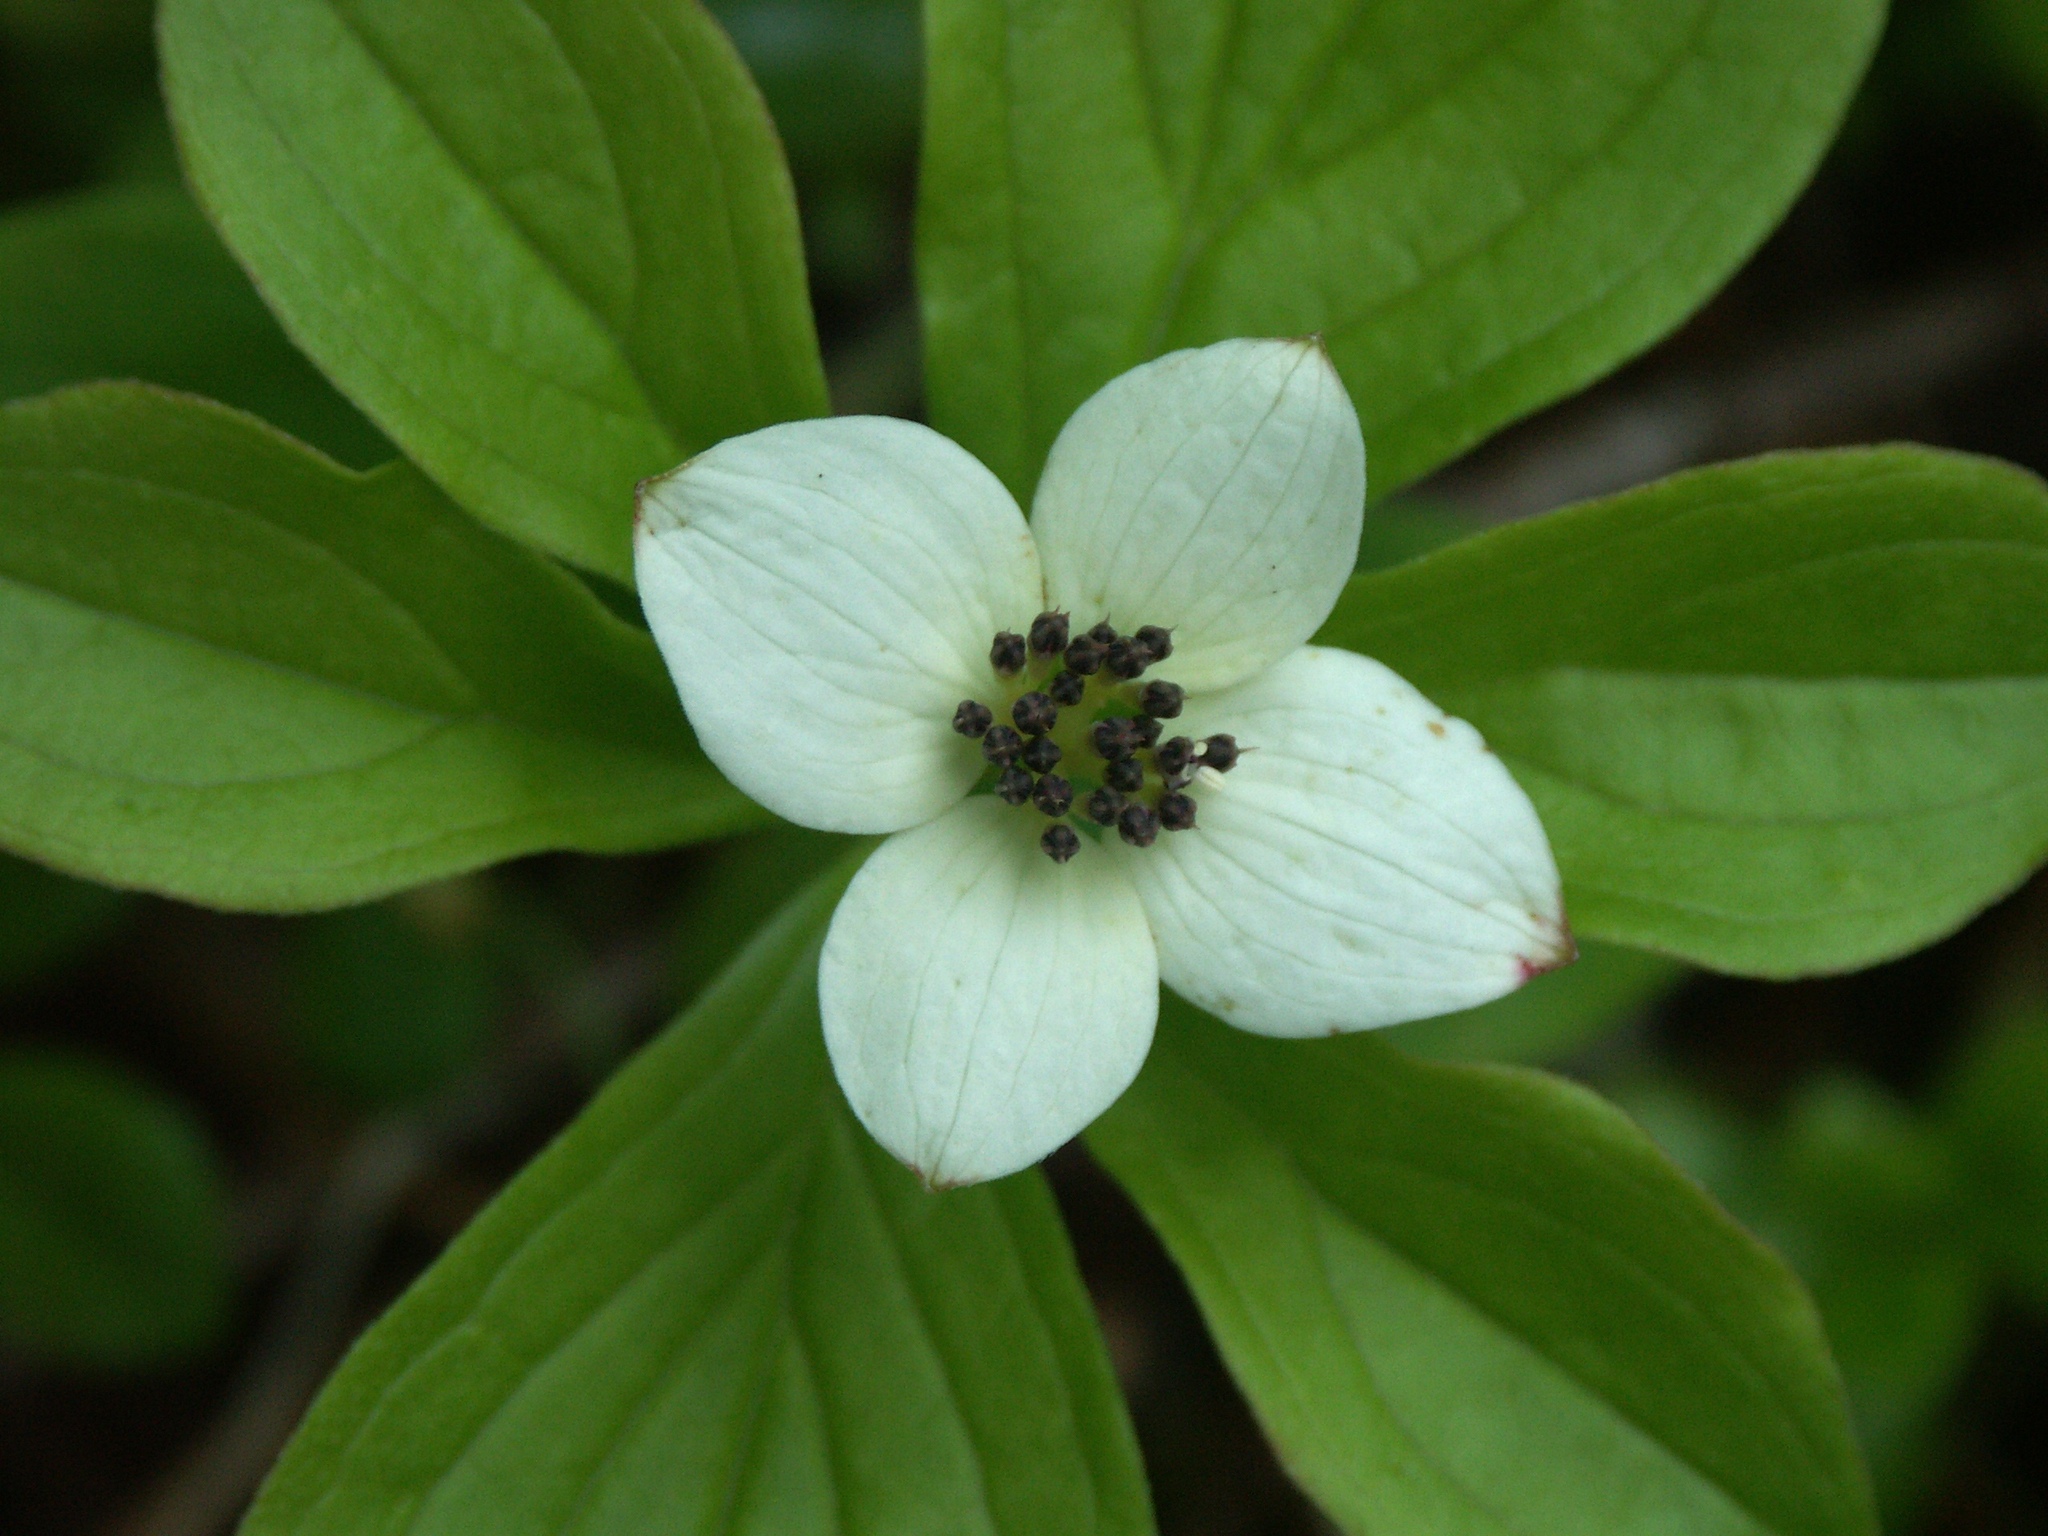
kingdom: Plantae
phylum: Tracheophyta
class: Magnoliopsida
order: Cornales
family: Cornaceae
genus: Cornus
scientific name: Cornus unalaschkensis
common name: Alaska bunchberry
